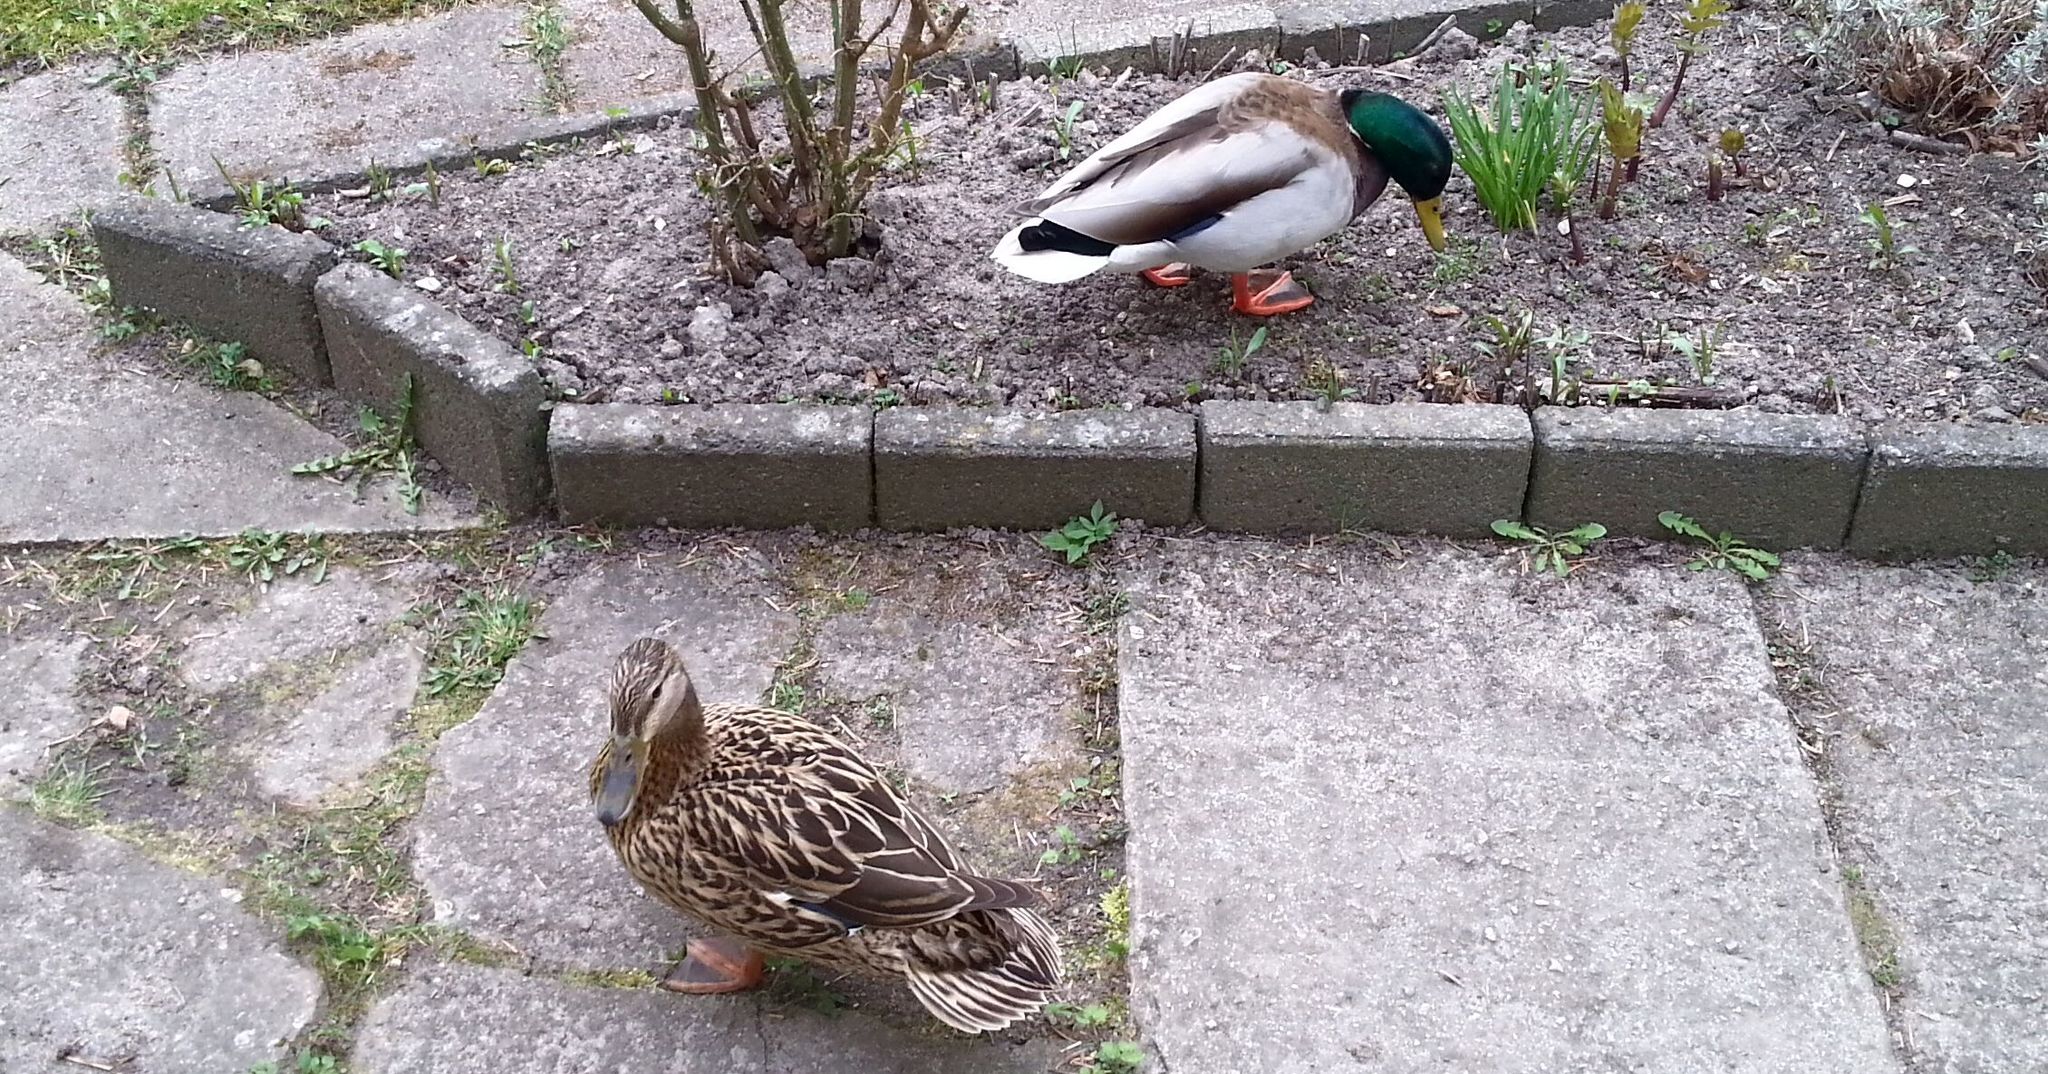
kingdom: Animalia
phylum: Chordata
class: Aves
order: Anseriformes
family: Anatidae
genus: Anas
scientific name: Anas platyrhynchos
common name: Mallard
